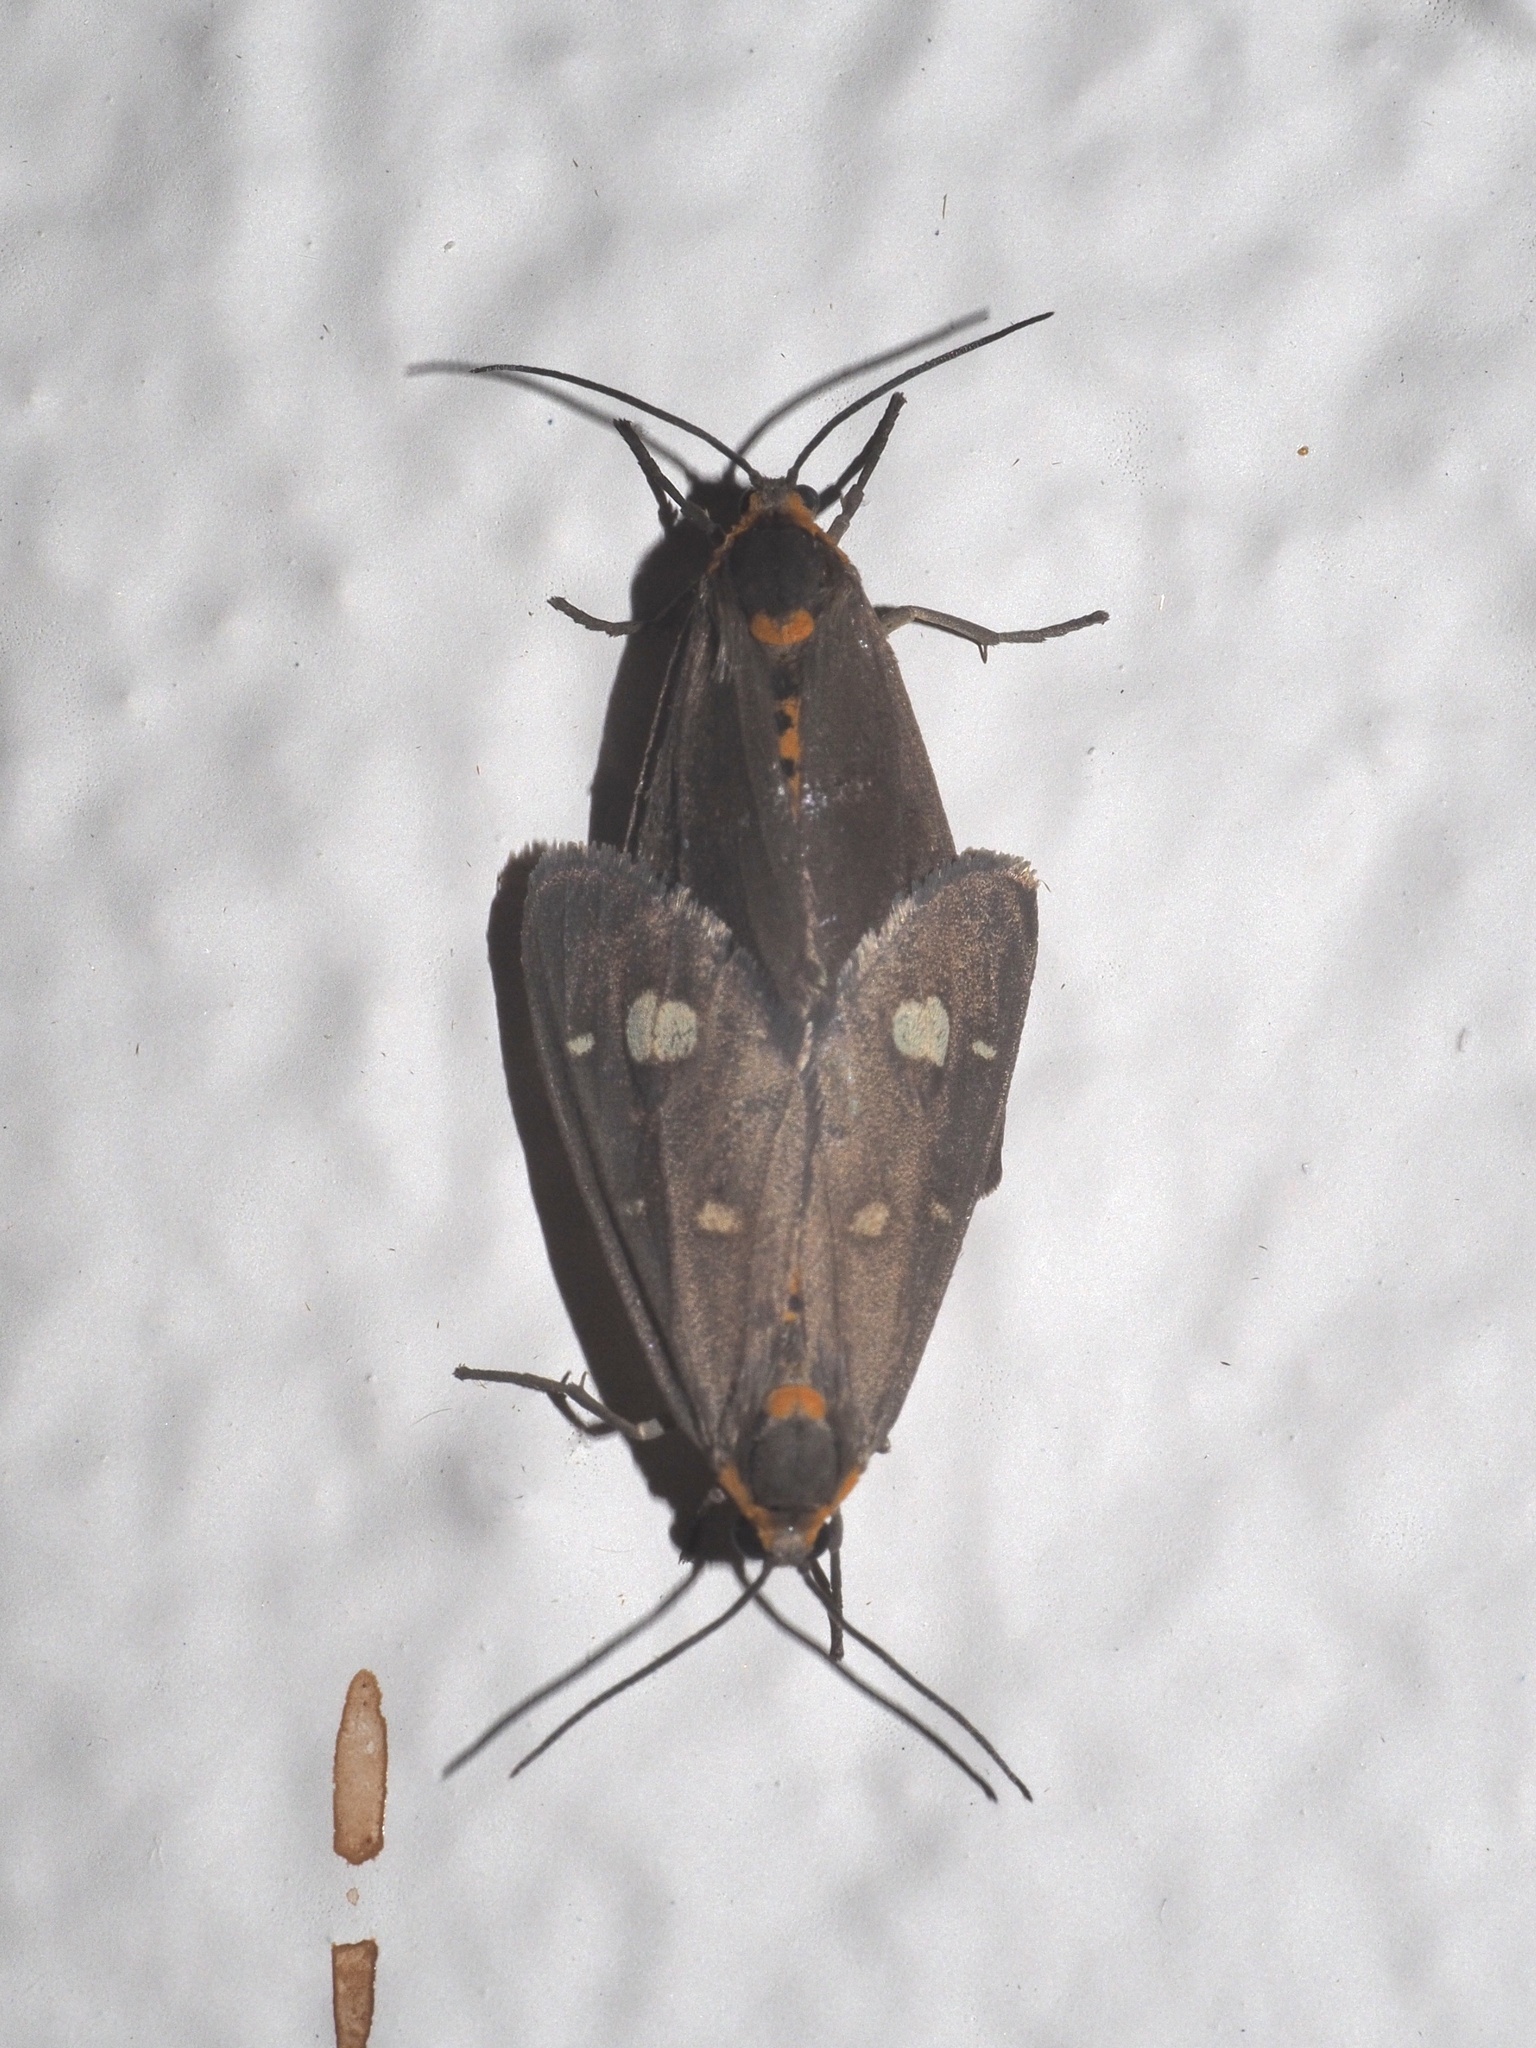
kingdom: Animalia
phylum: Arthropoda
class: Insecta
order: Lepidoptera
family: Erebidae
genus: Dysauxes
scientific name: Dysauxes punctata
